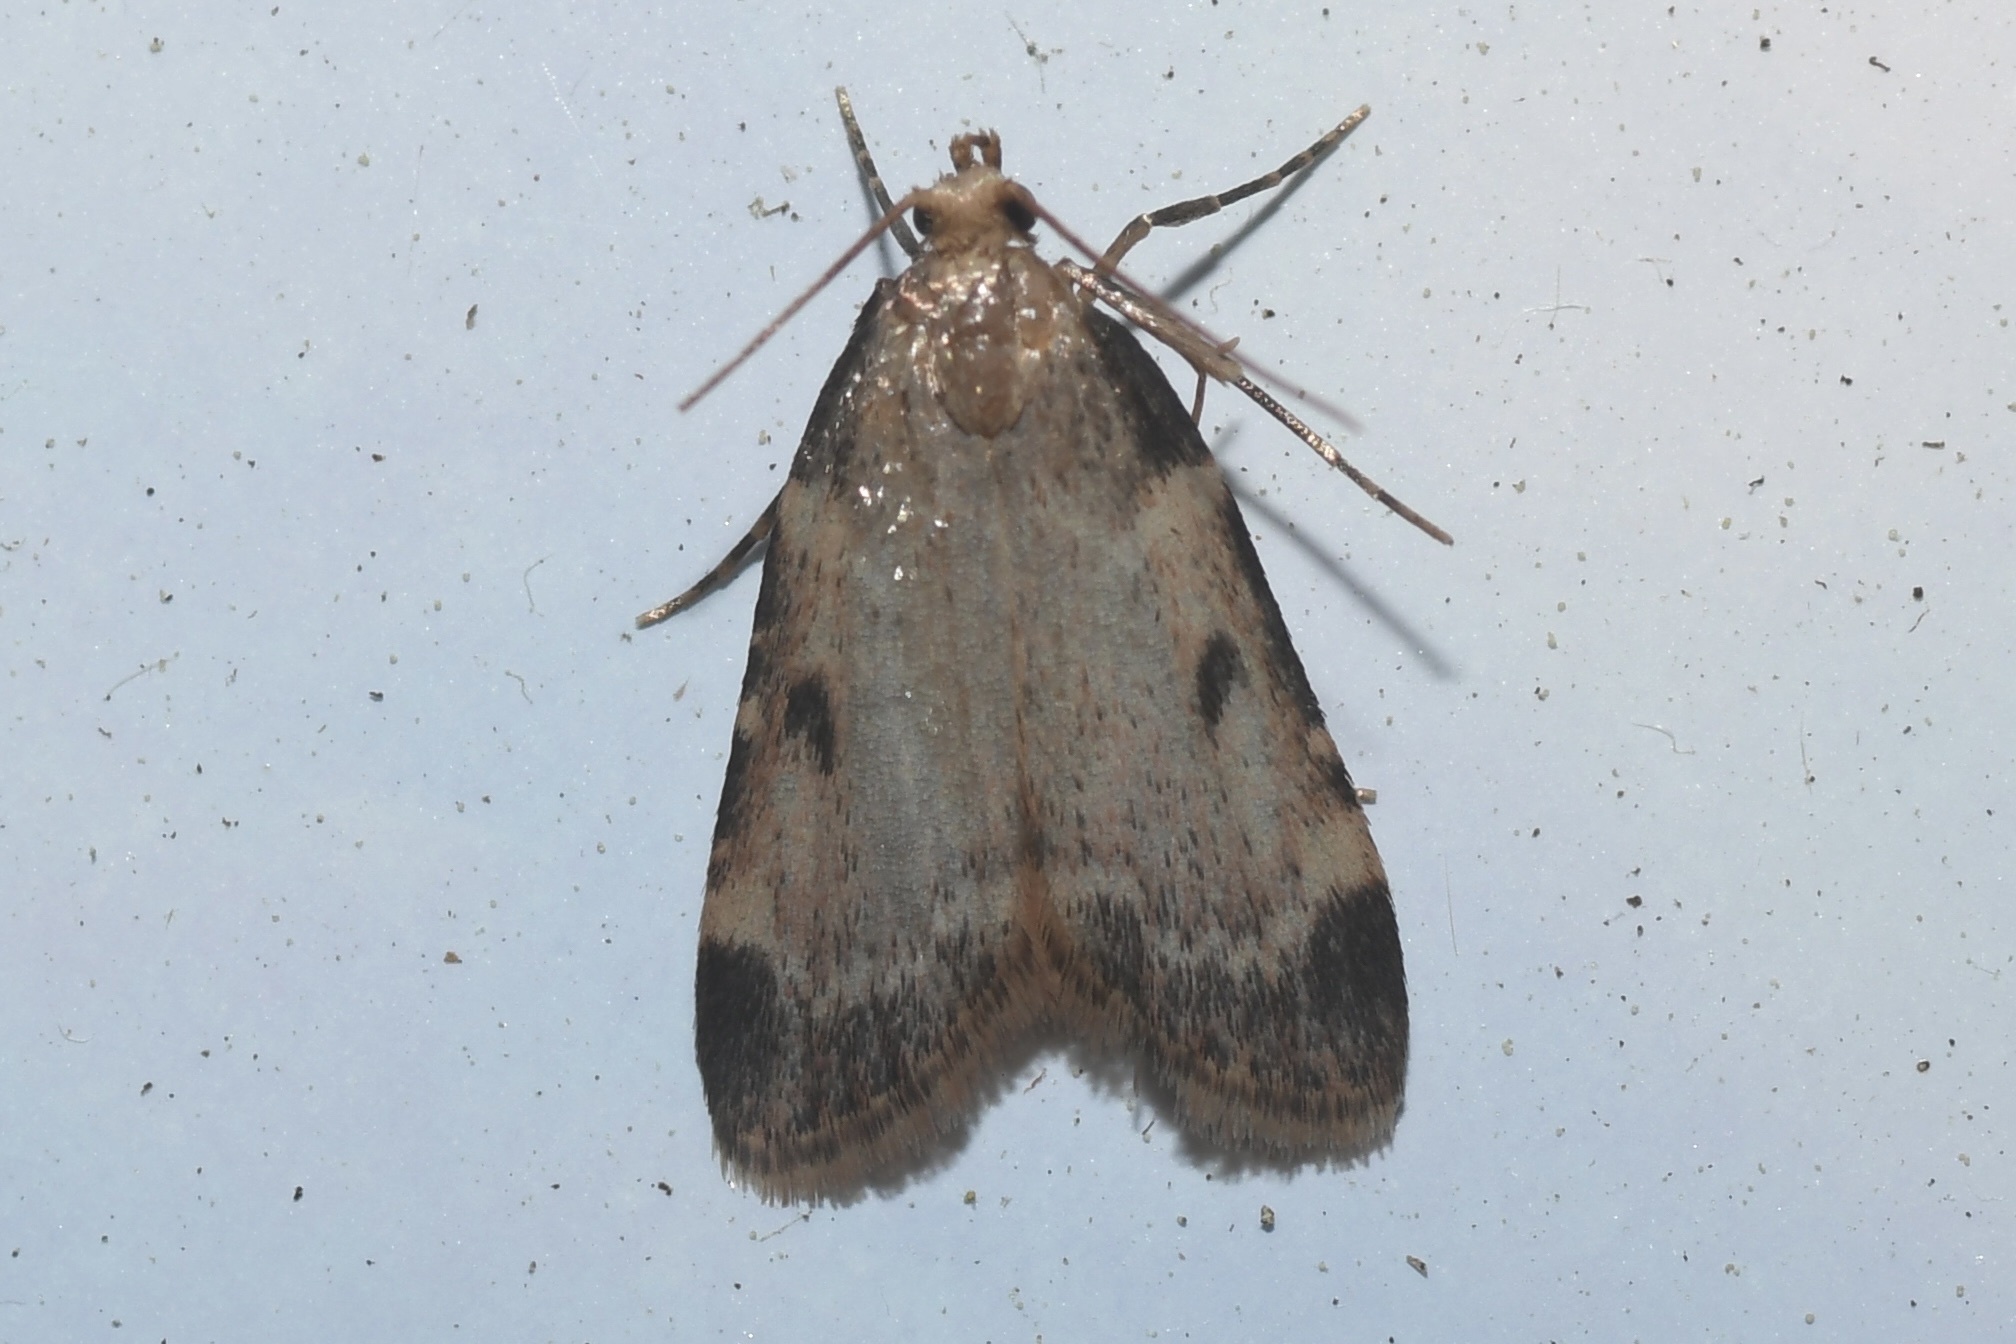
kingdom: Animalia
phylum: Arthropoda
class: Insecta
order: Lepidoptera
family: Pyralidae
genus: Aglossa
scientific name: Aglossa costiferalis
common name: Calico pyralid moth
